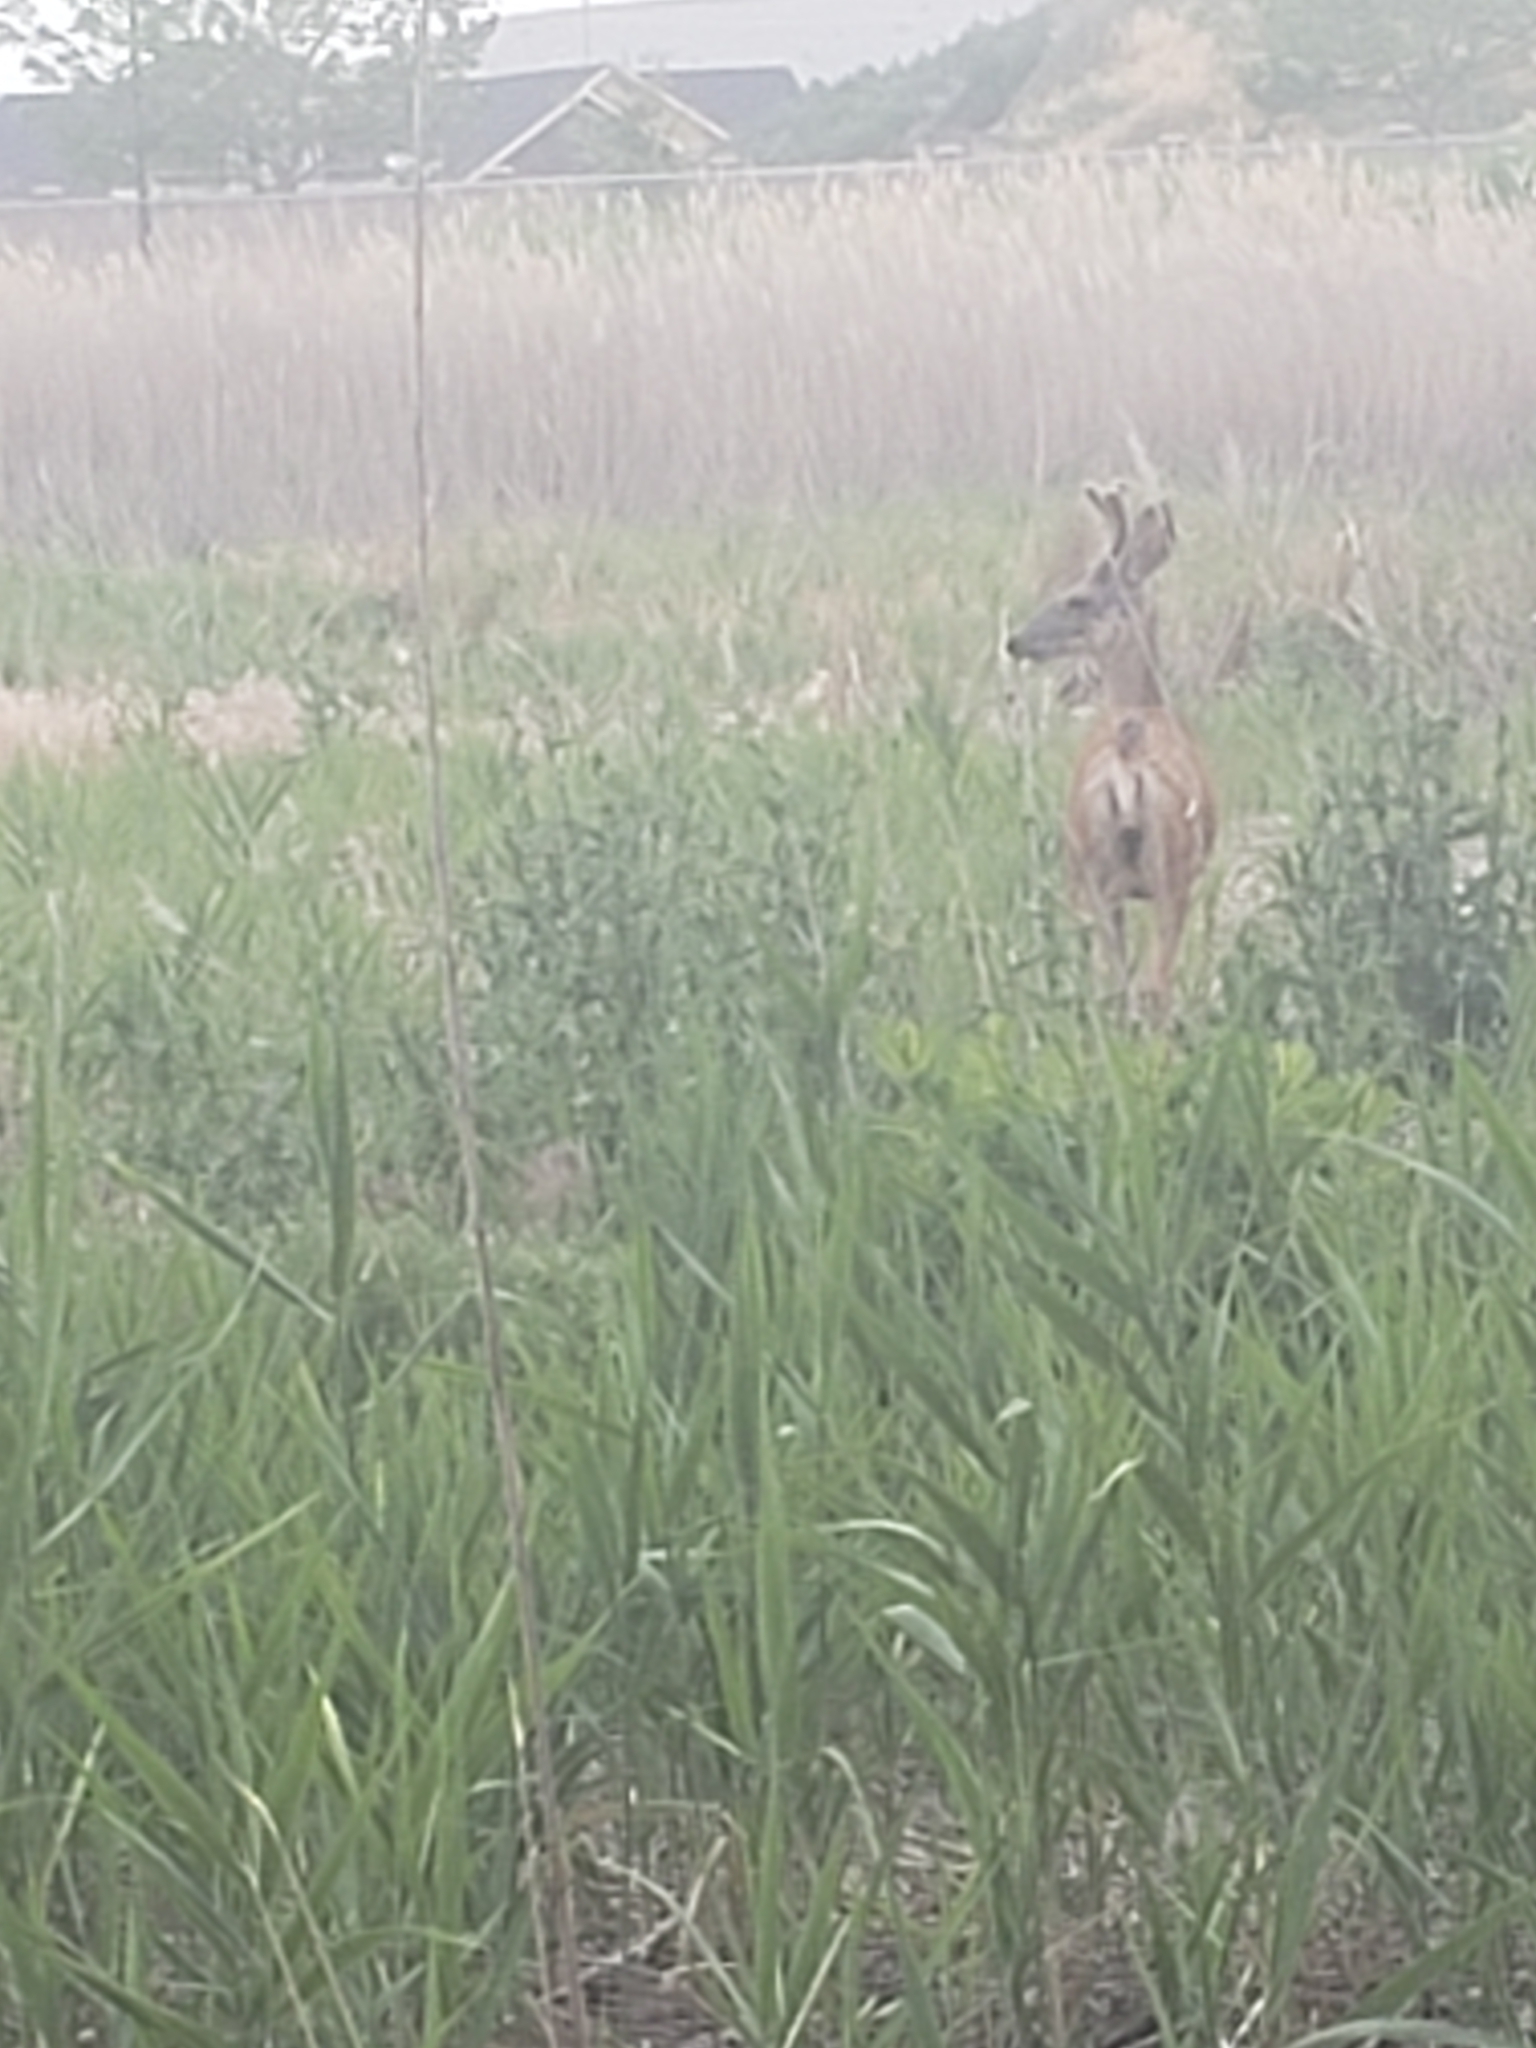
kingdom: Animalia
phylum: Chordata
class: Mammalia
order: Artiodactyla
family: Cervidae
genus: Odocoileus
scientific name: Odocoileus hemionus
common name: Mule deer
